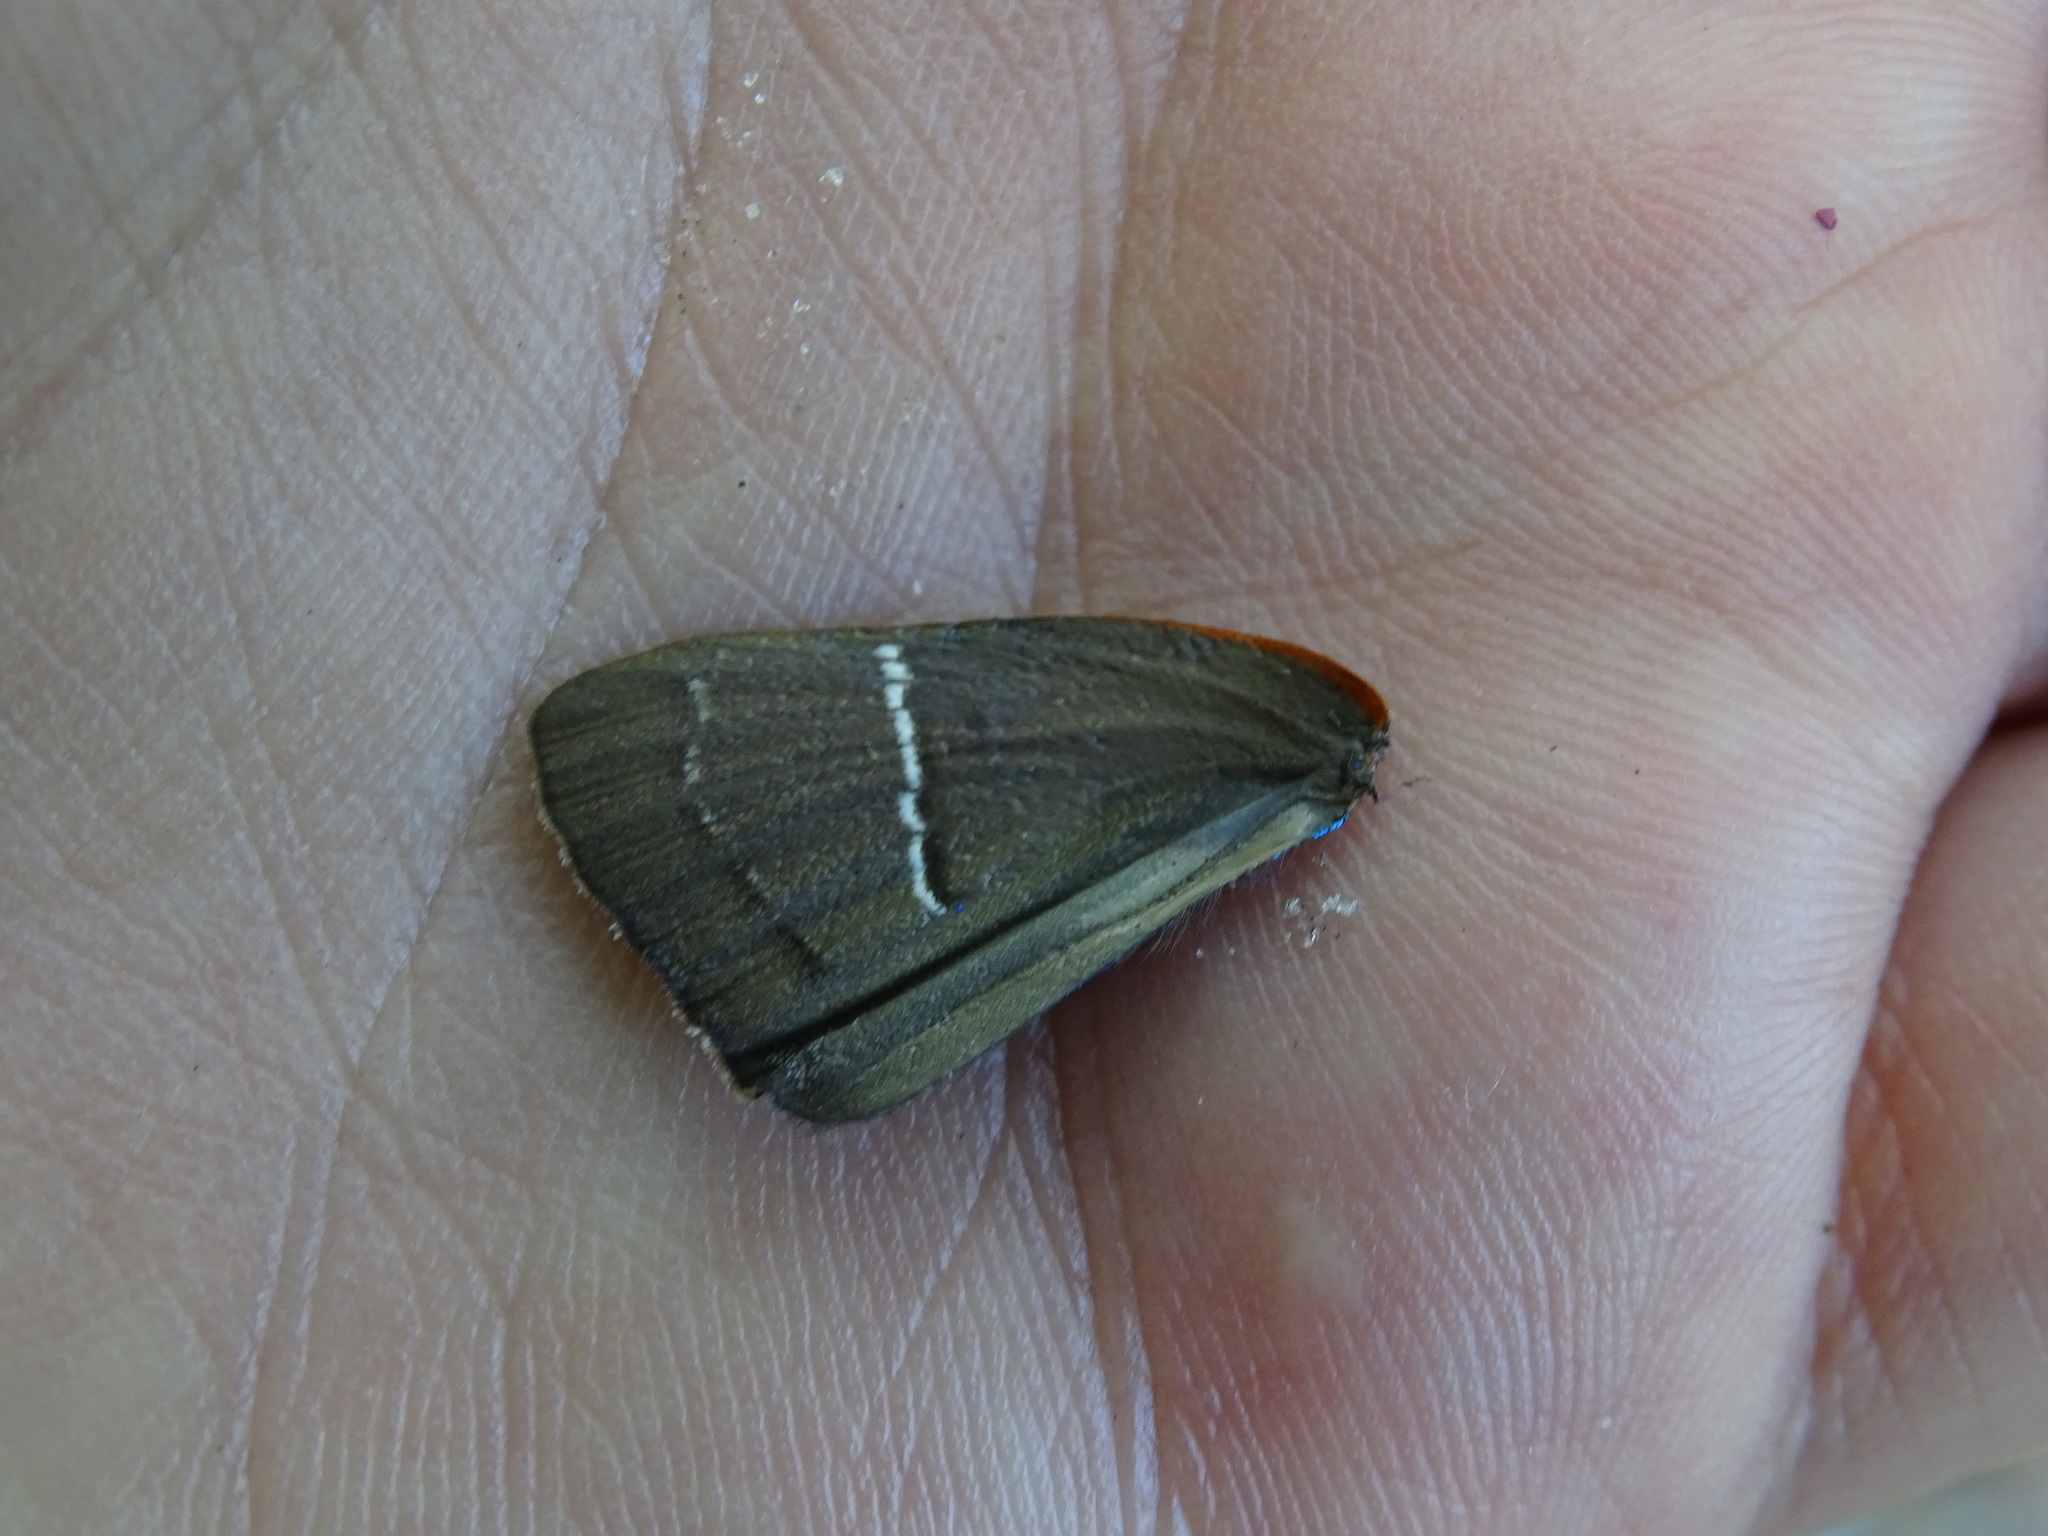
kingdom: Animalia
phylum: Arthropoda
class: Insecta
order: Lepidoptera
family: Lycaenidae
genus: Parrhasius
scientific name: Parrhasius m-album
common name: White m hairstreak
